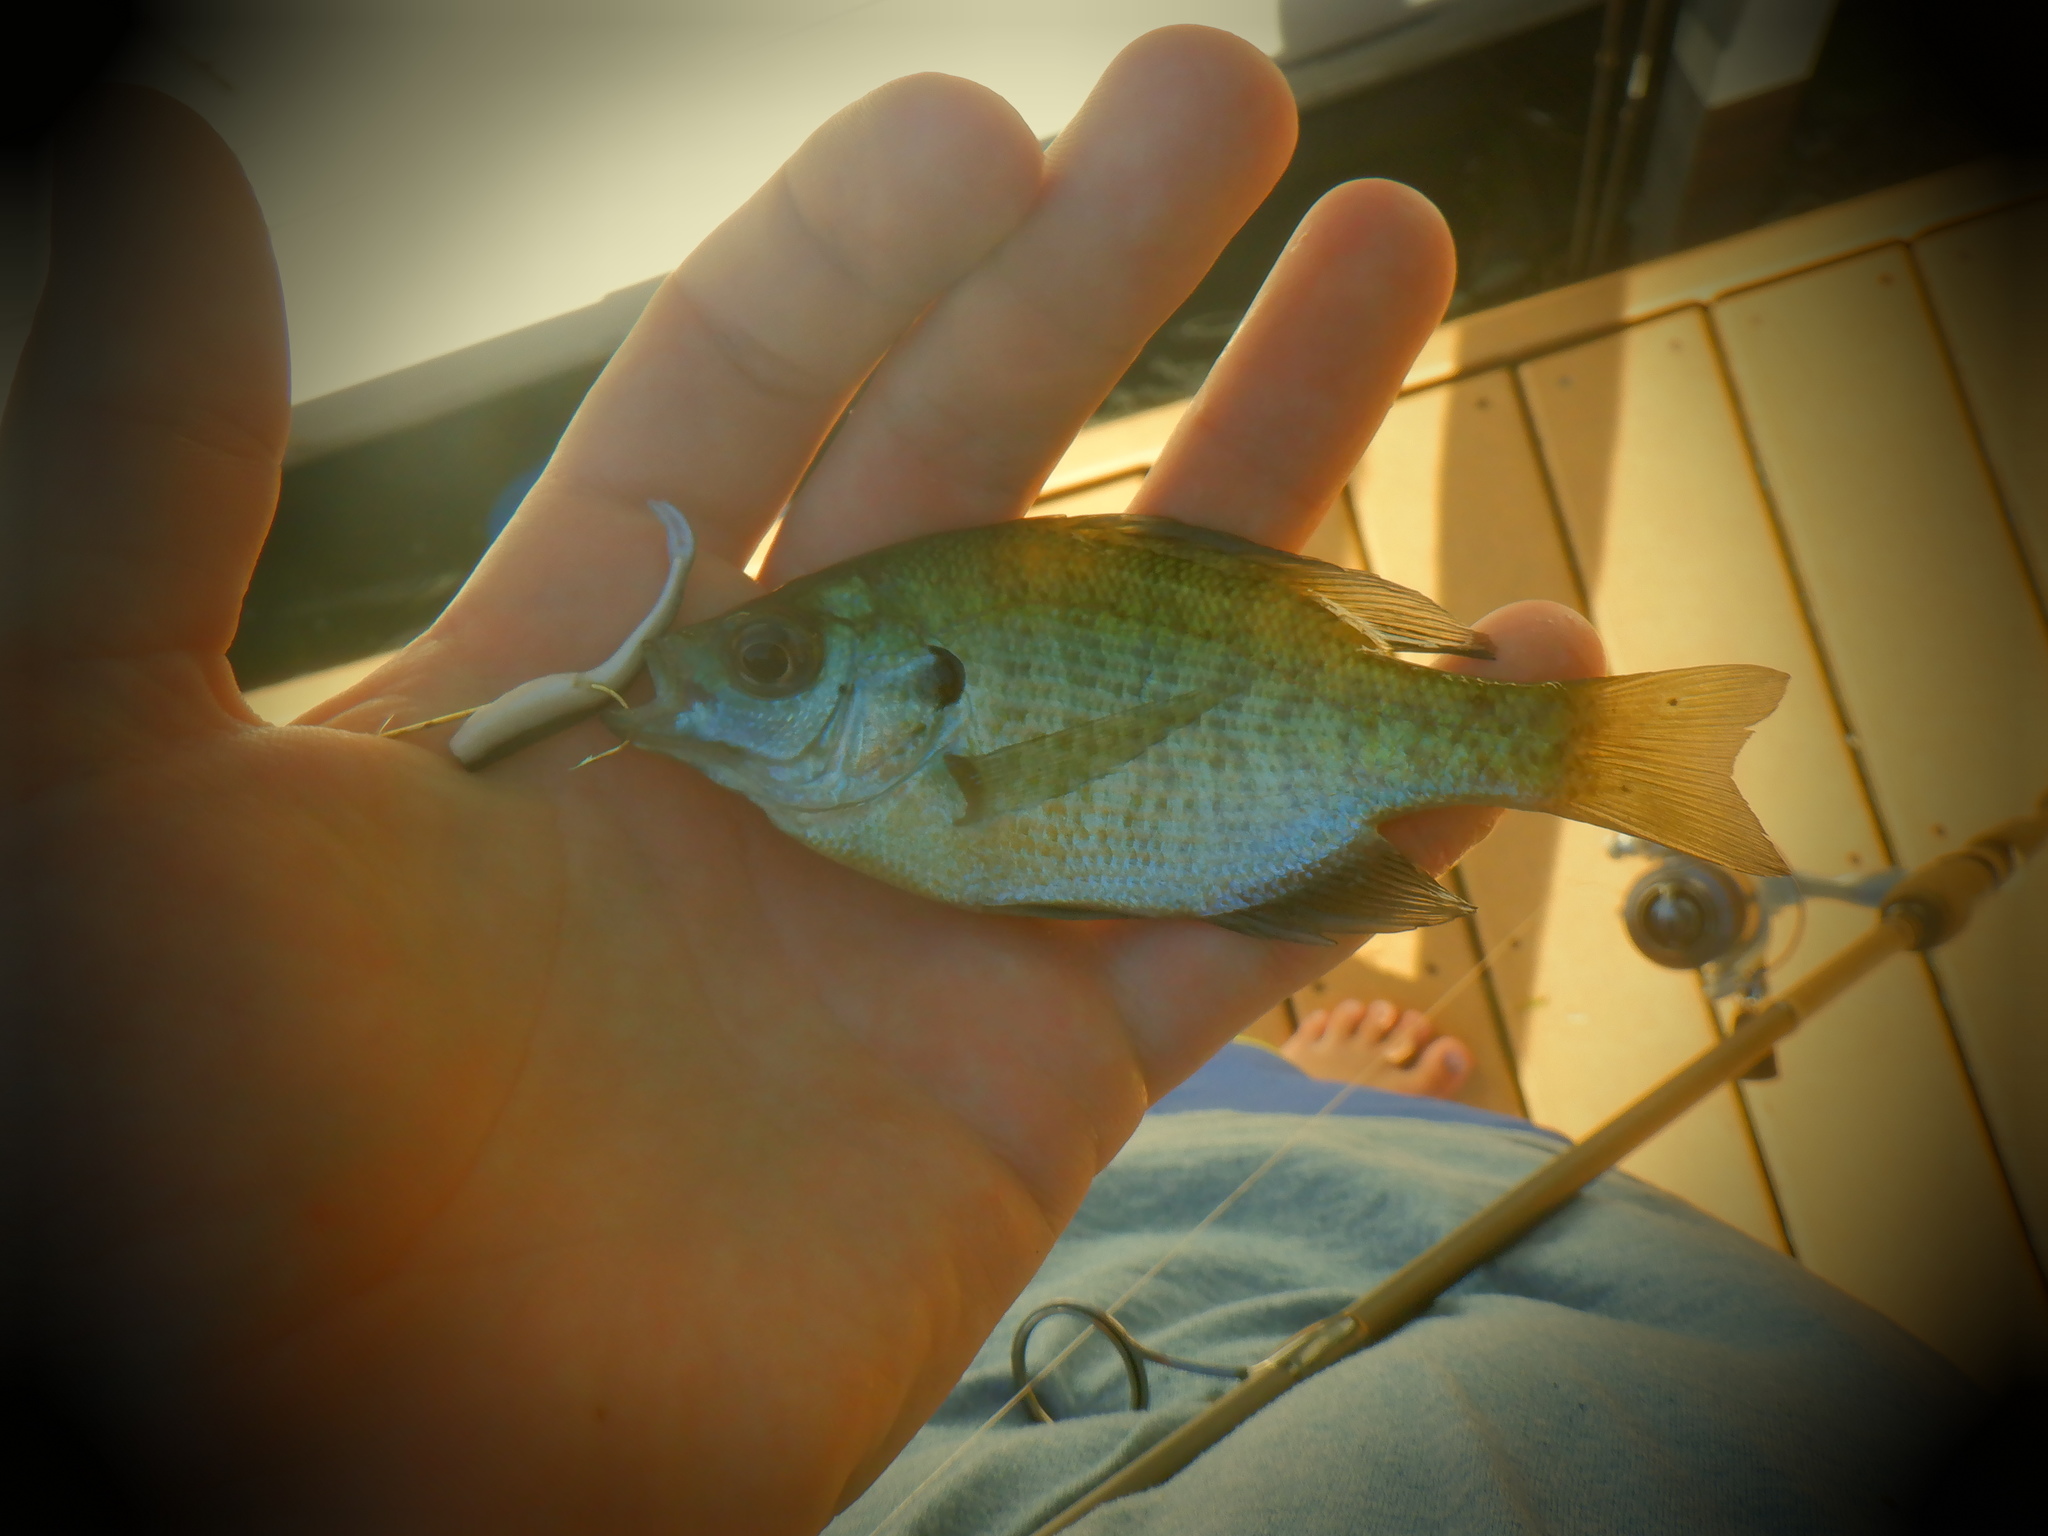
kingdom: Animalia
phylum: Chordata
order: Perciformes
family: Centrarchidae
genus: Lepomis
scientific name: Lepomis macrochirus
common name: Bluegill
